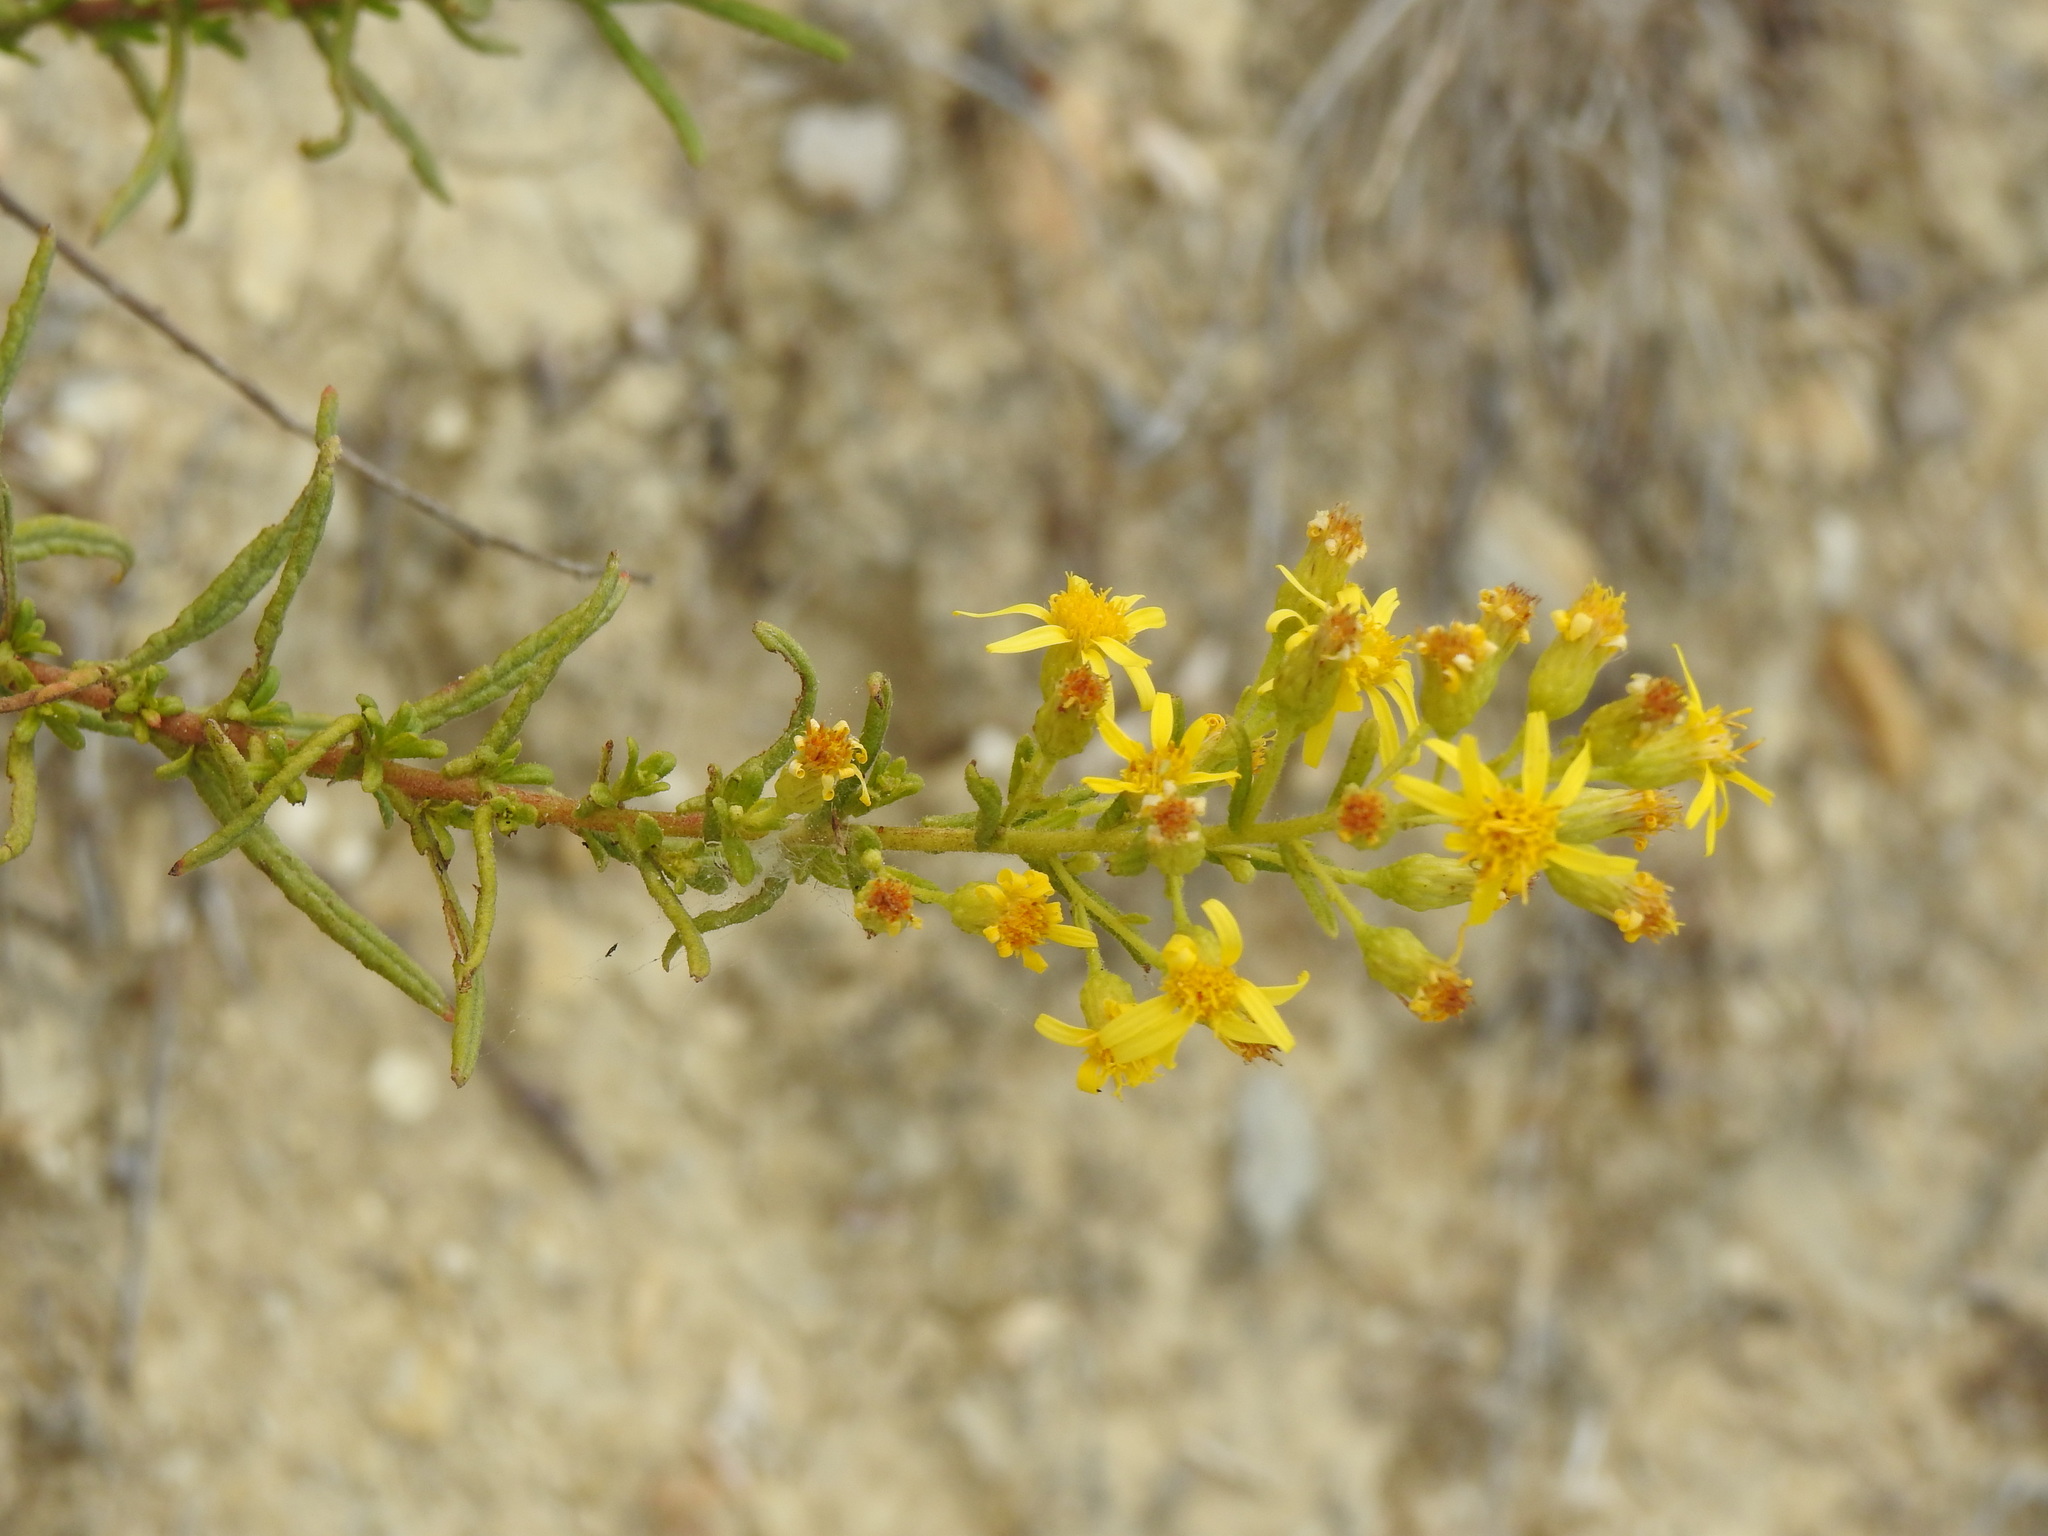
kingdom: Plantae
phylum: Tracheophyta
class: Magnoliopsida
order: Asterales
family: Asteraceae
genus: Dittrichia
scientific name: Dittrichia viscosa
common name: Woody fleabane
